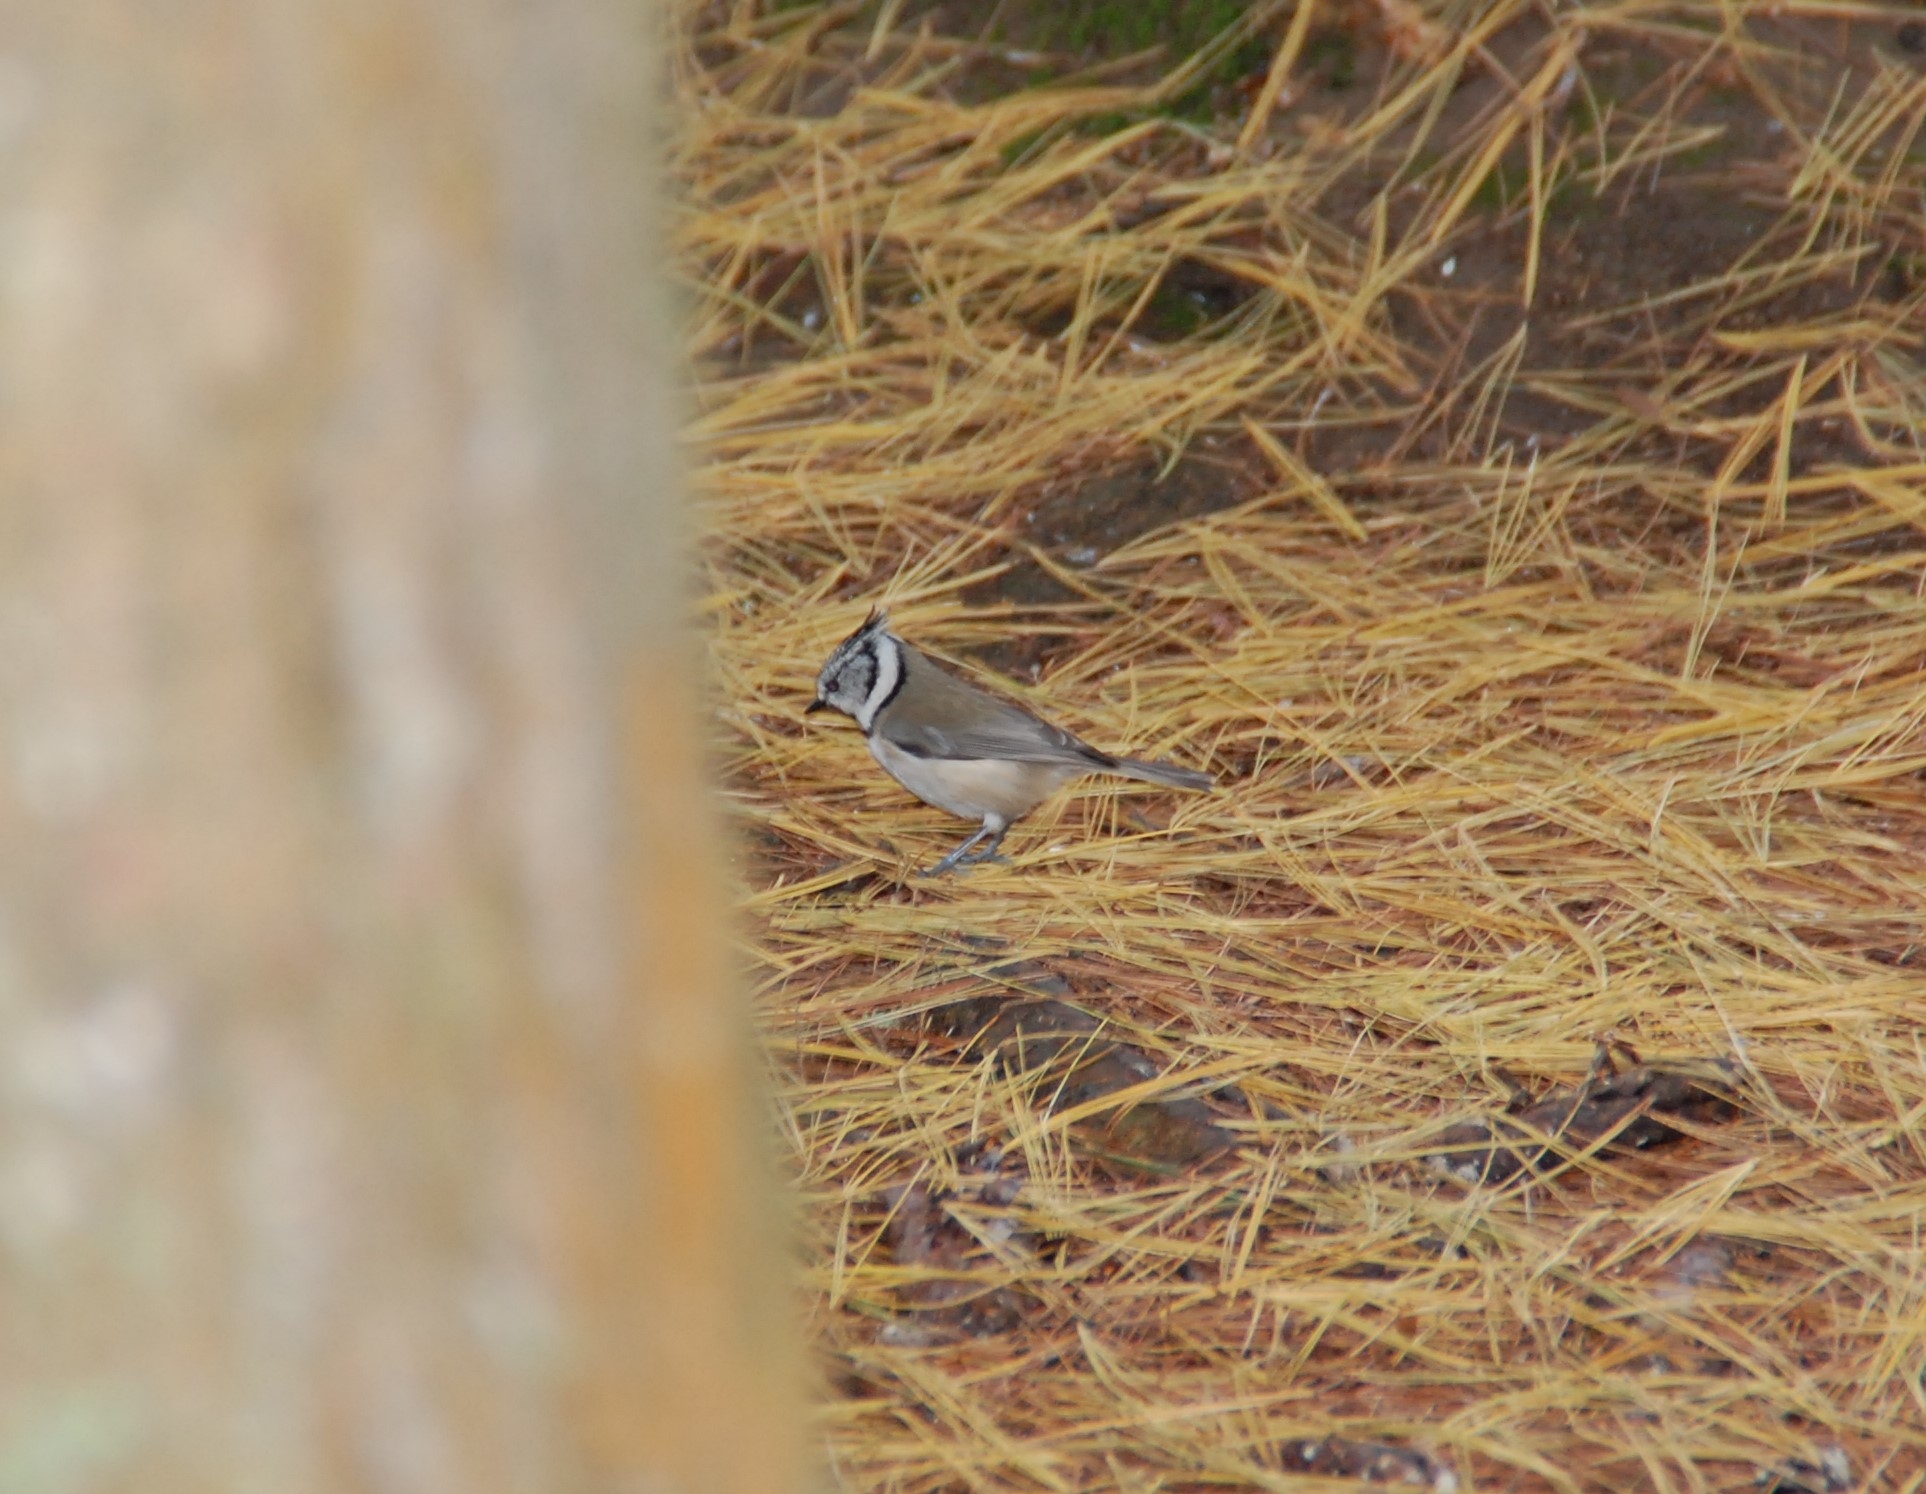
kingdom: Animalia
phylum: Chordata
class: Aves
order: Passeriformes
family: Paridae
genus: Lophophanes
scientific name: Lophophanes cristatus
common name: European crested tit
